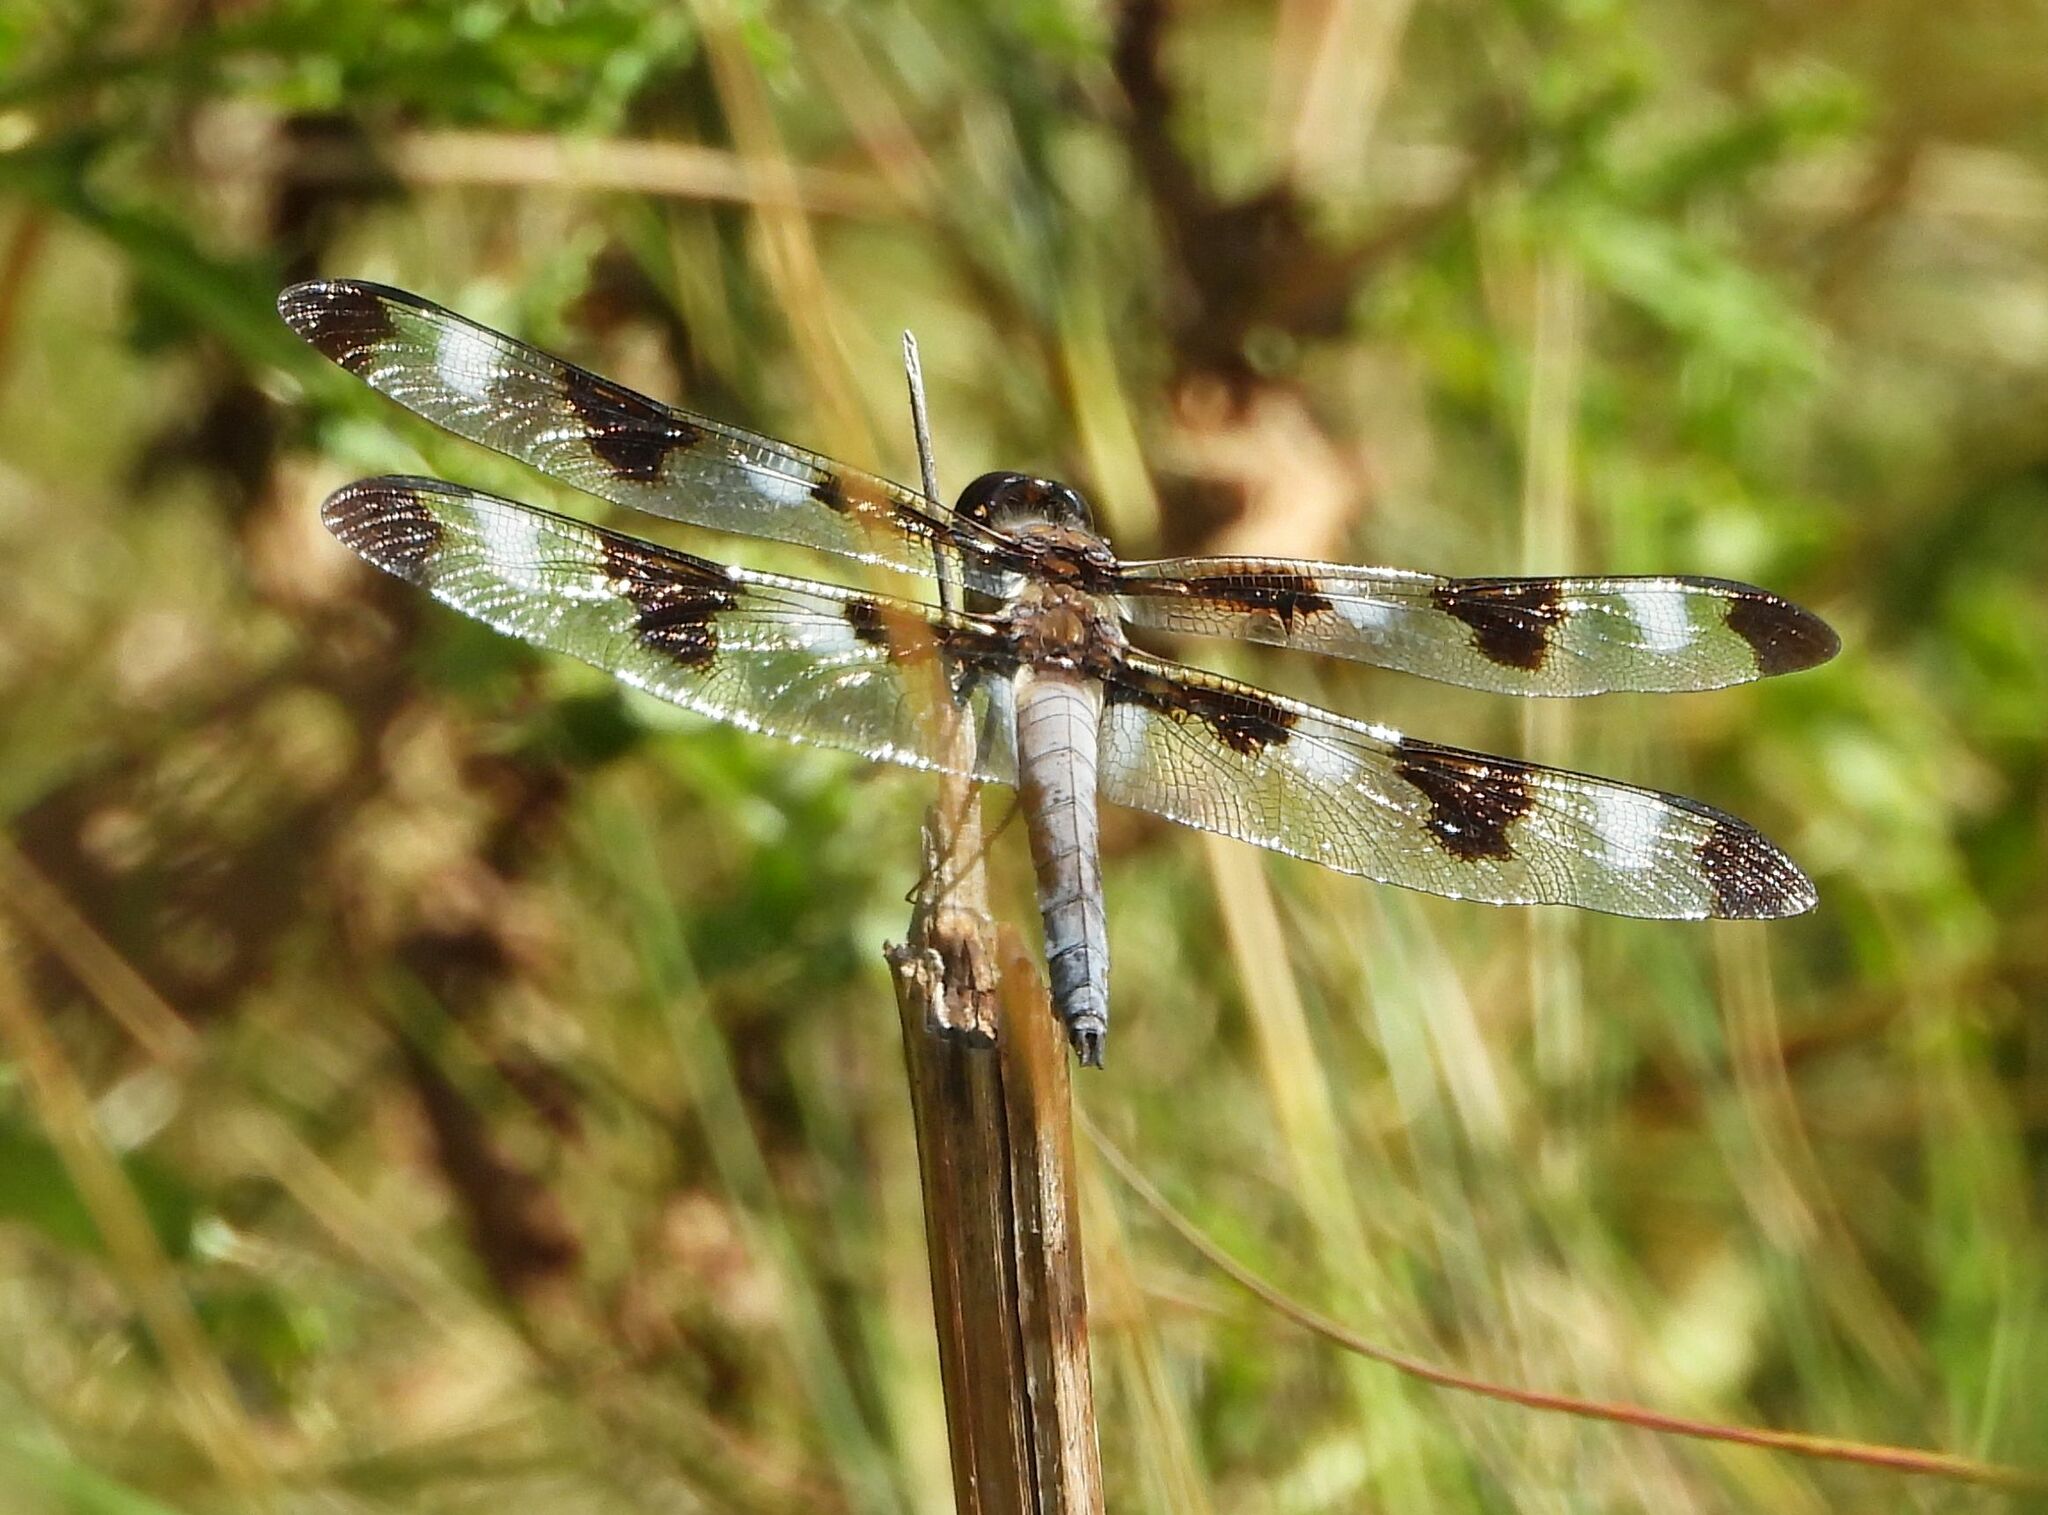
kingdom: Animalia
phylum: Arthropoda
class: Insecta
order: Odonata
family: Libellulidae
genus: Libellula
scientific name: Libellula pulchella
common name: Twelve-spotted skimmer
